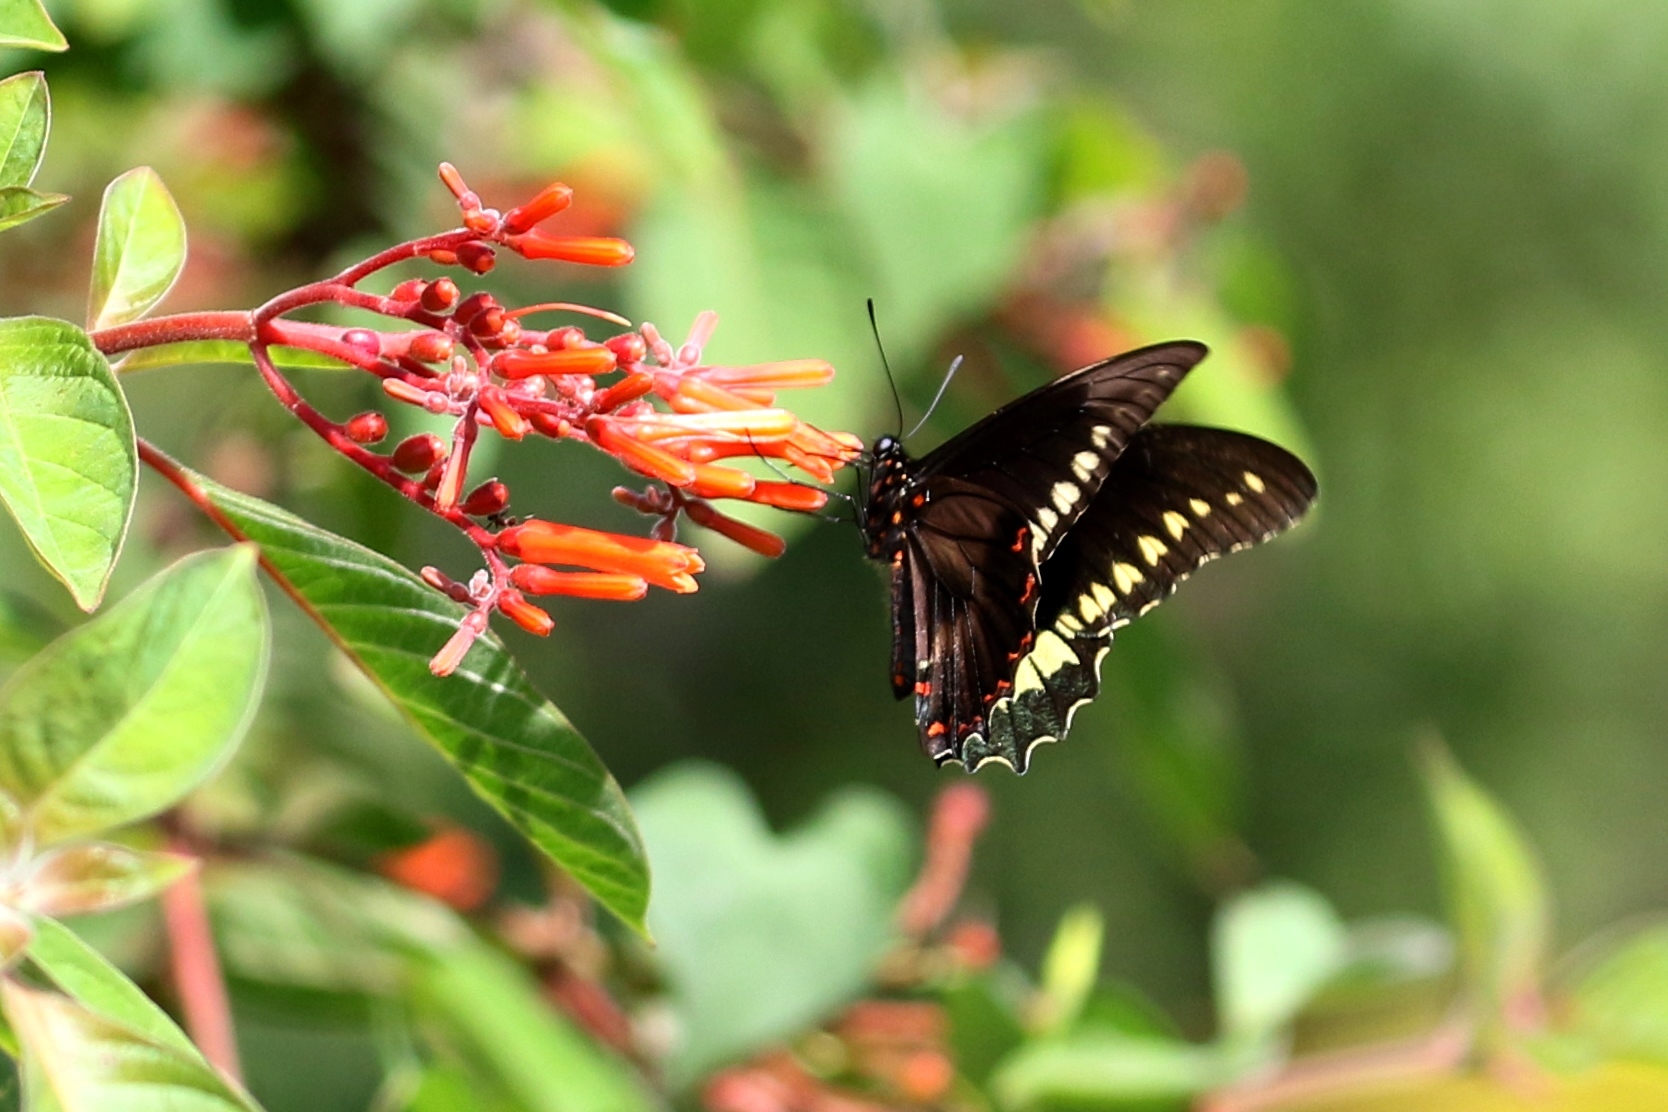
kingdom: Animalia
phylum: Arthropoda
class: Insecta
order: Lepidoptera
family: Papilionidae
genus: Battus
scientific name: Battus polydamas
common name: Polydamas swallowtail
